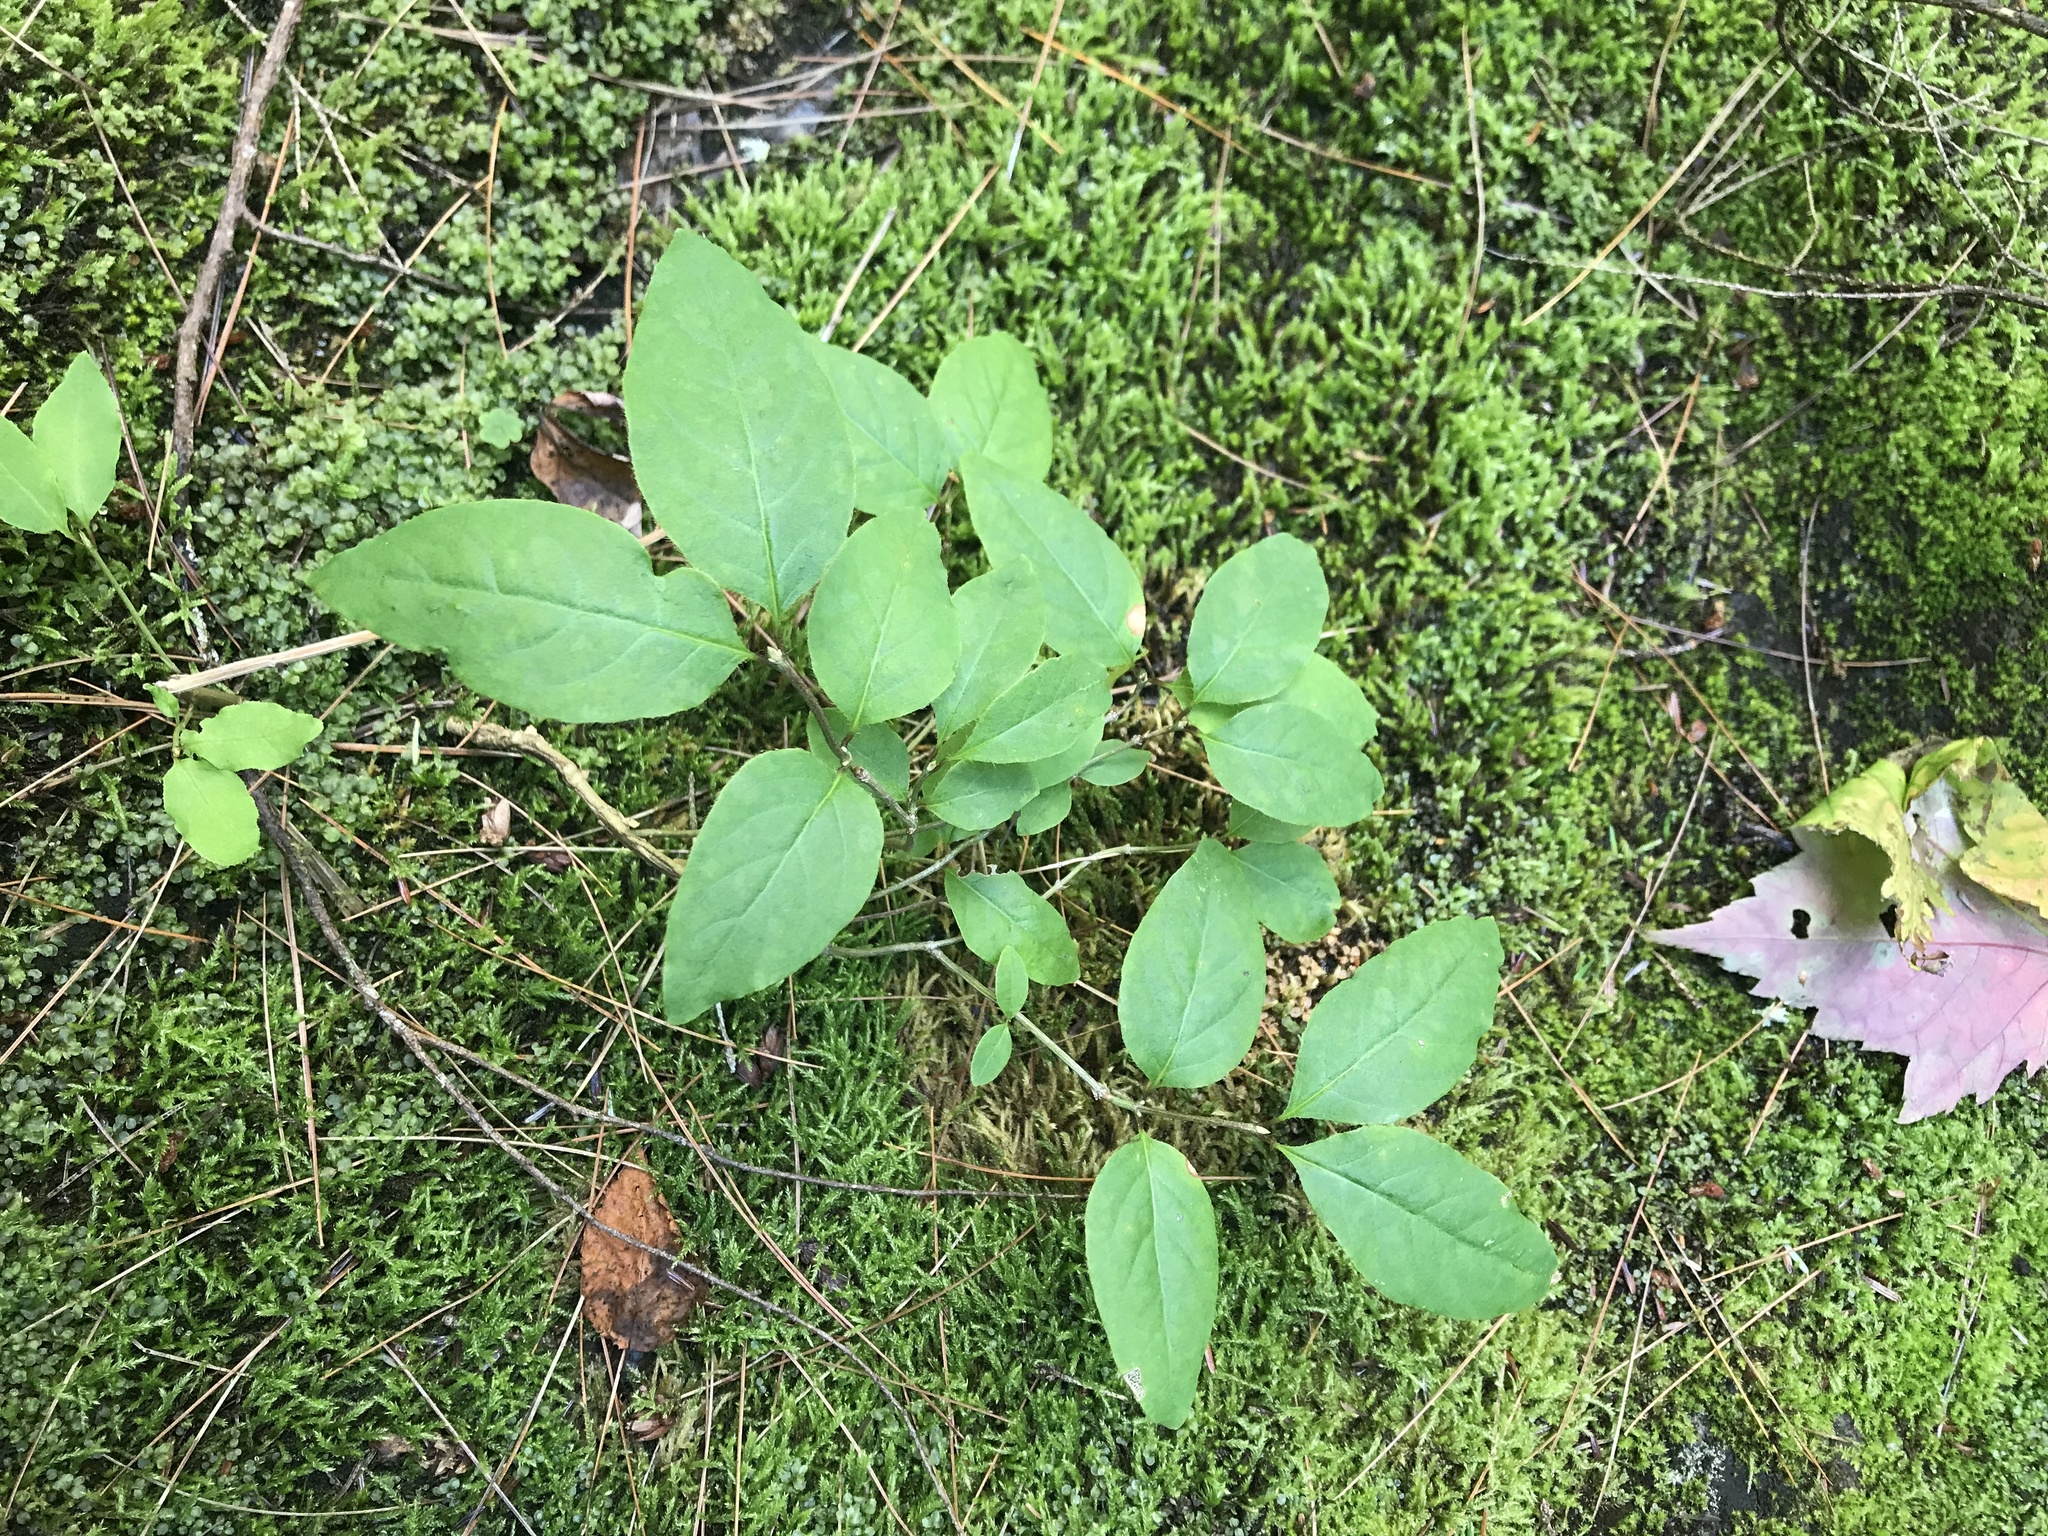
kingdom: Plantae
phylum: Tracheophyta
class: Magnoliopsida
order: Dipsacales
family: Caprifoliaceae
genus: Lonicera
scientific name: Lonicera canadensis
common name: American fly-honeysuckle
